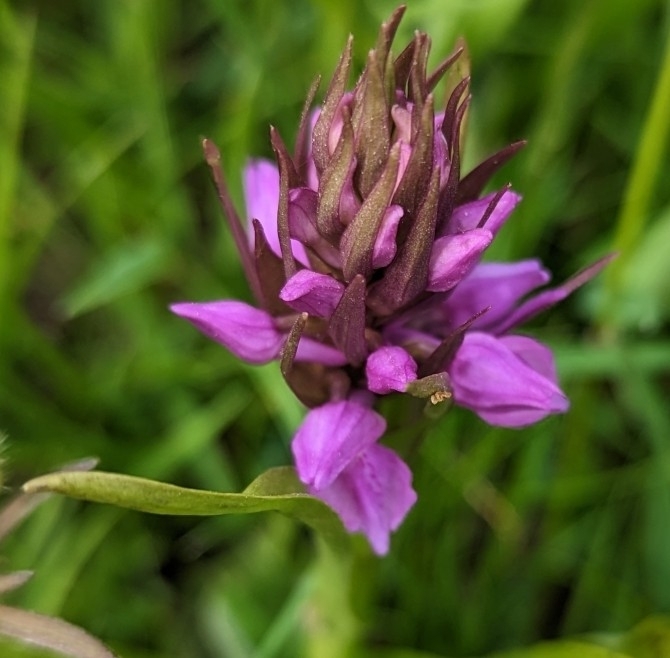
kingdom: Plantae
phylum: Tracheophyta
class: Liliopsida
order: Asparagales
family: Orchidaceae
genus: Dactylorhiza
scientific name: Dactylorhiza majalis
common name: Marsh orchid
